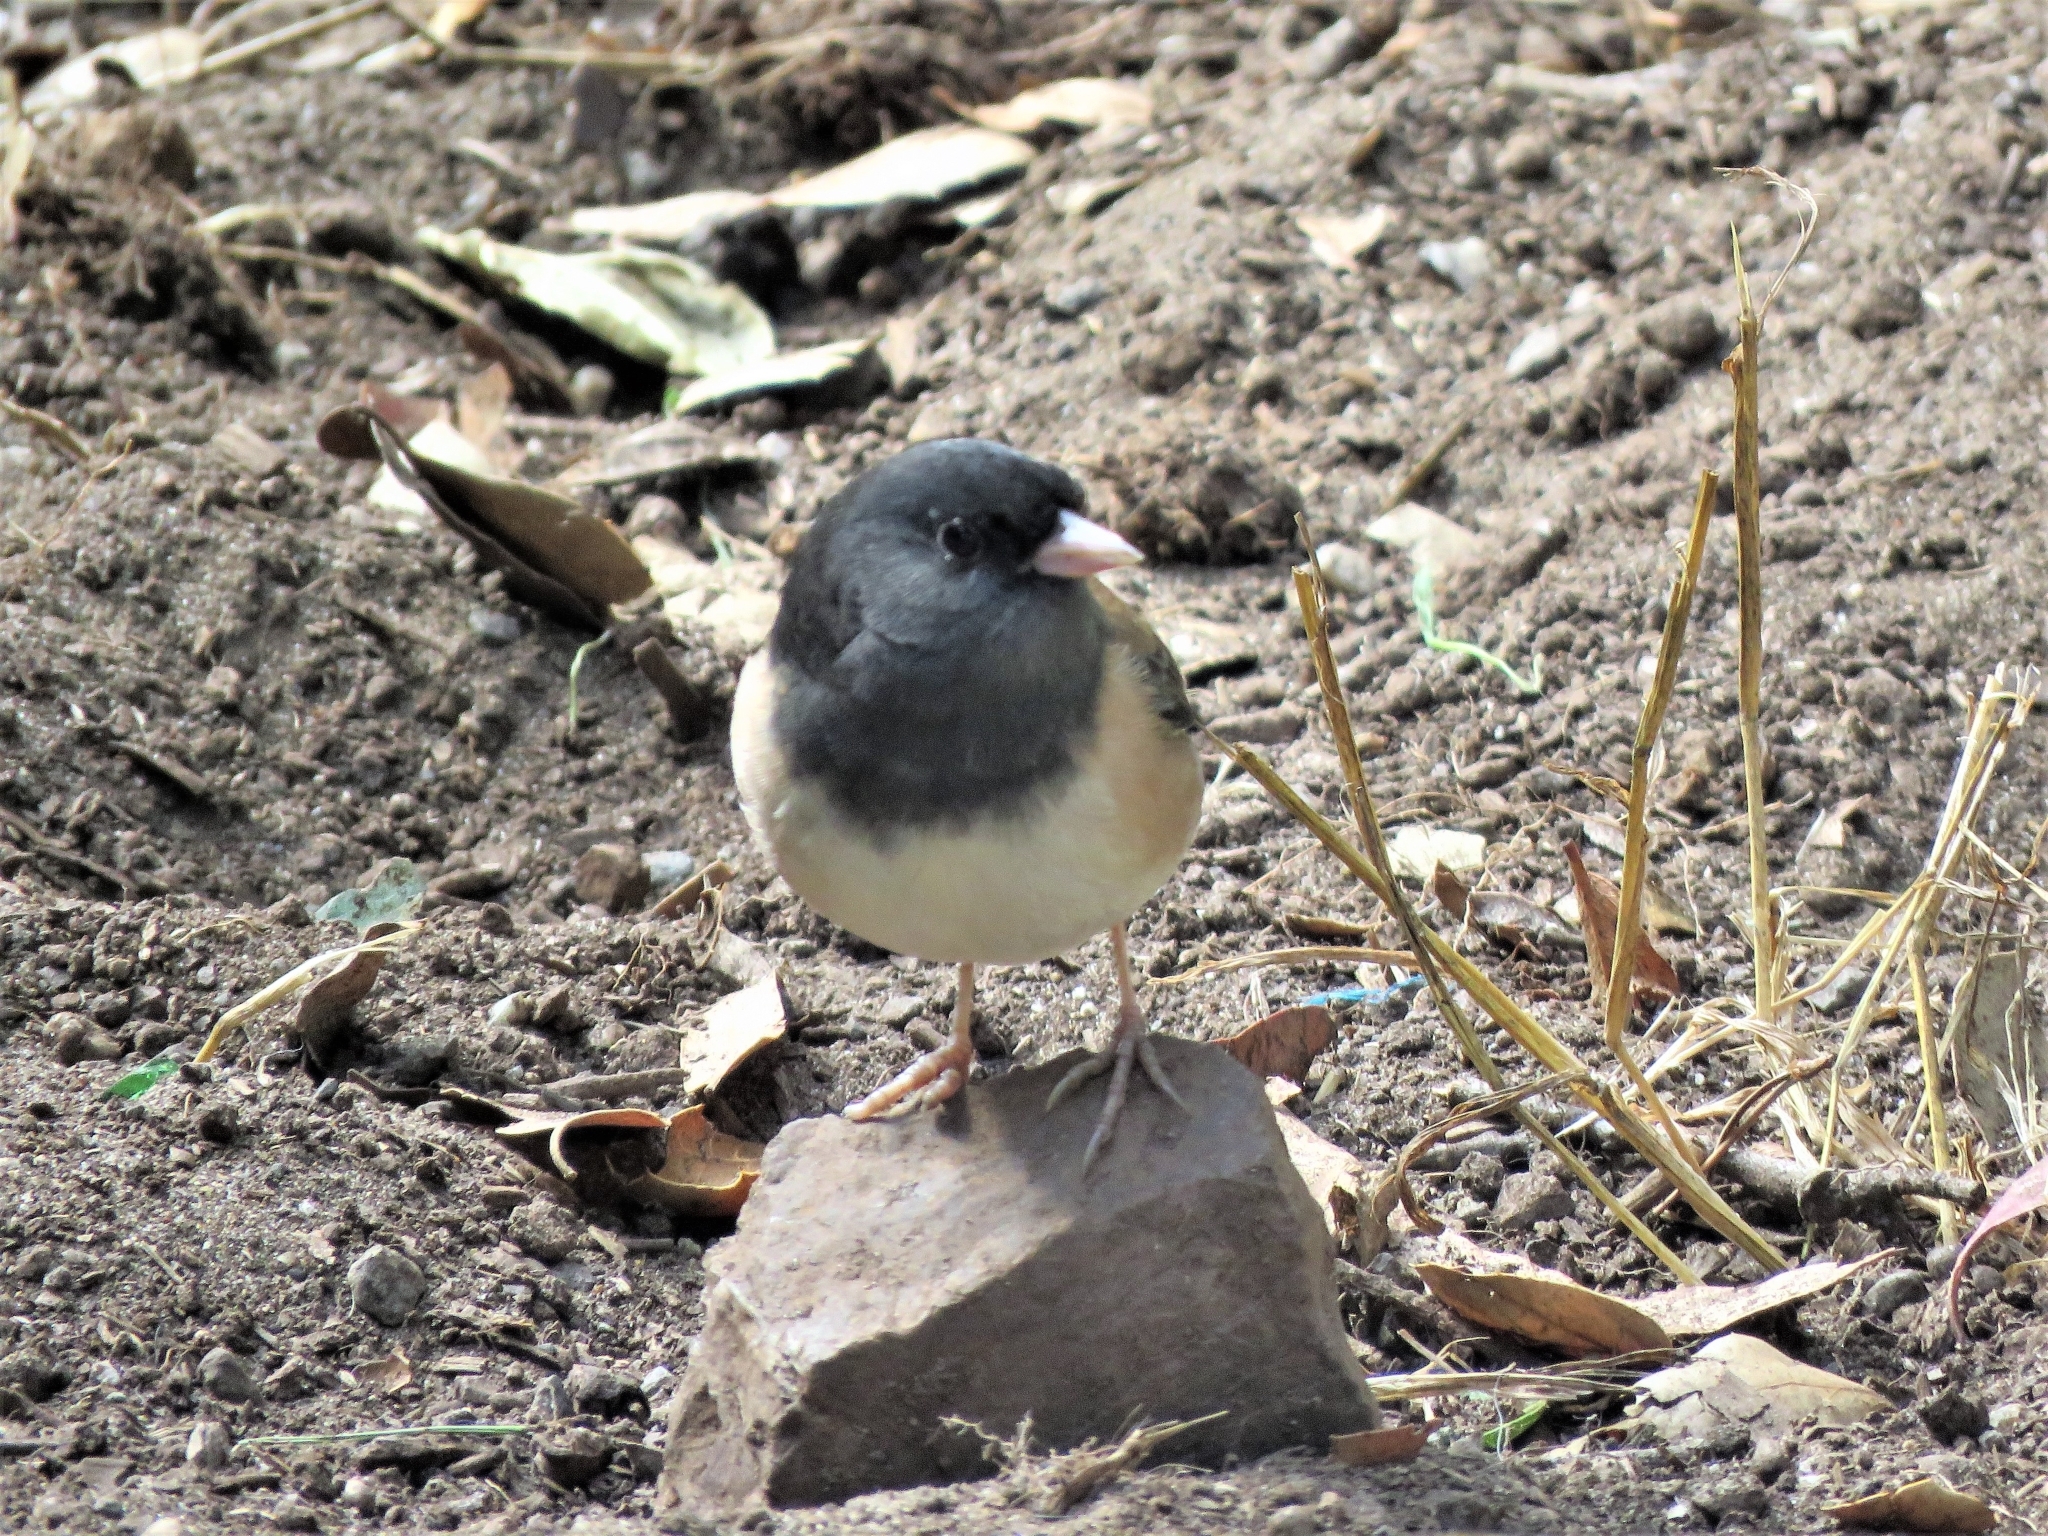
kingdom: Animalia
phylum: Chordata
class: Aves
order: Passeriformes
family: Passerellidae
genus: Junco
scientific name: Junco hyemalis
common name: Dark-eyed junco
